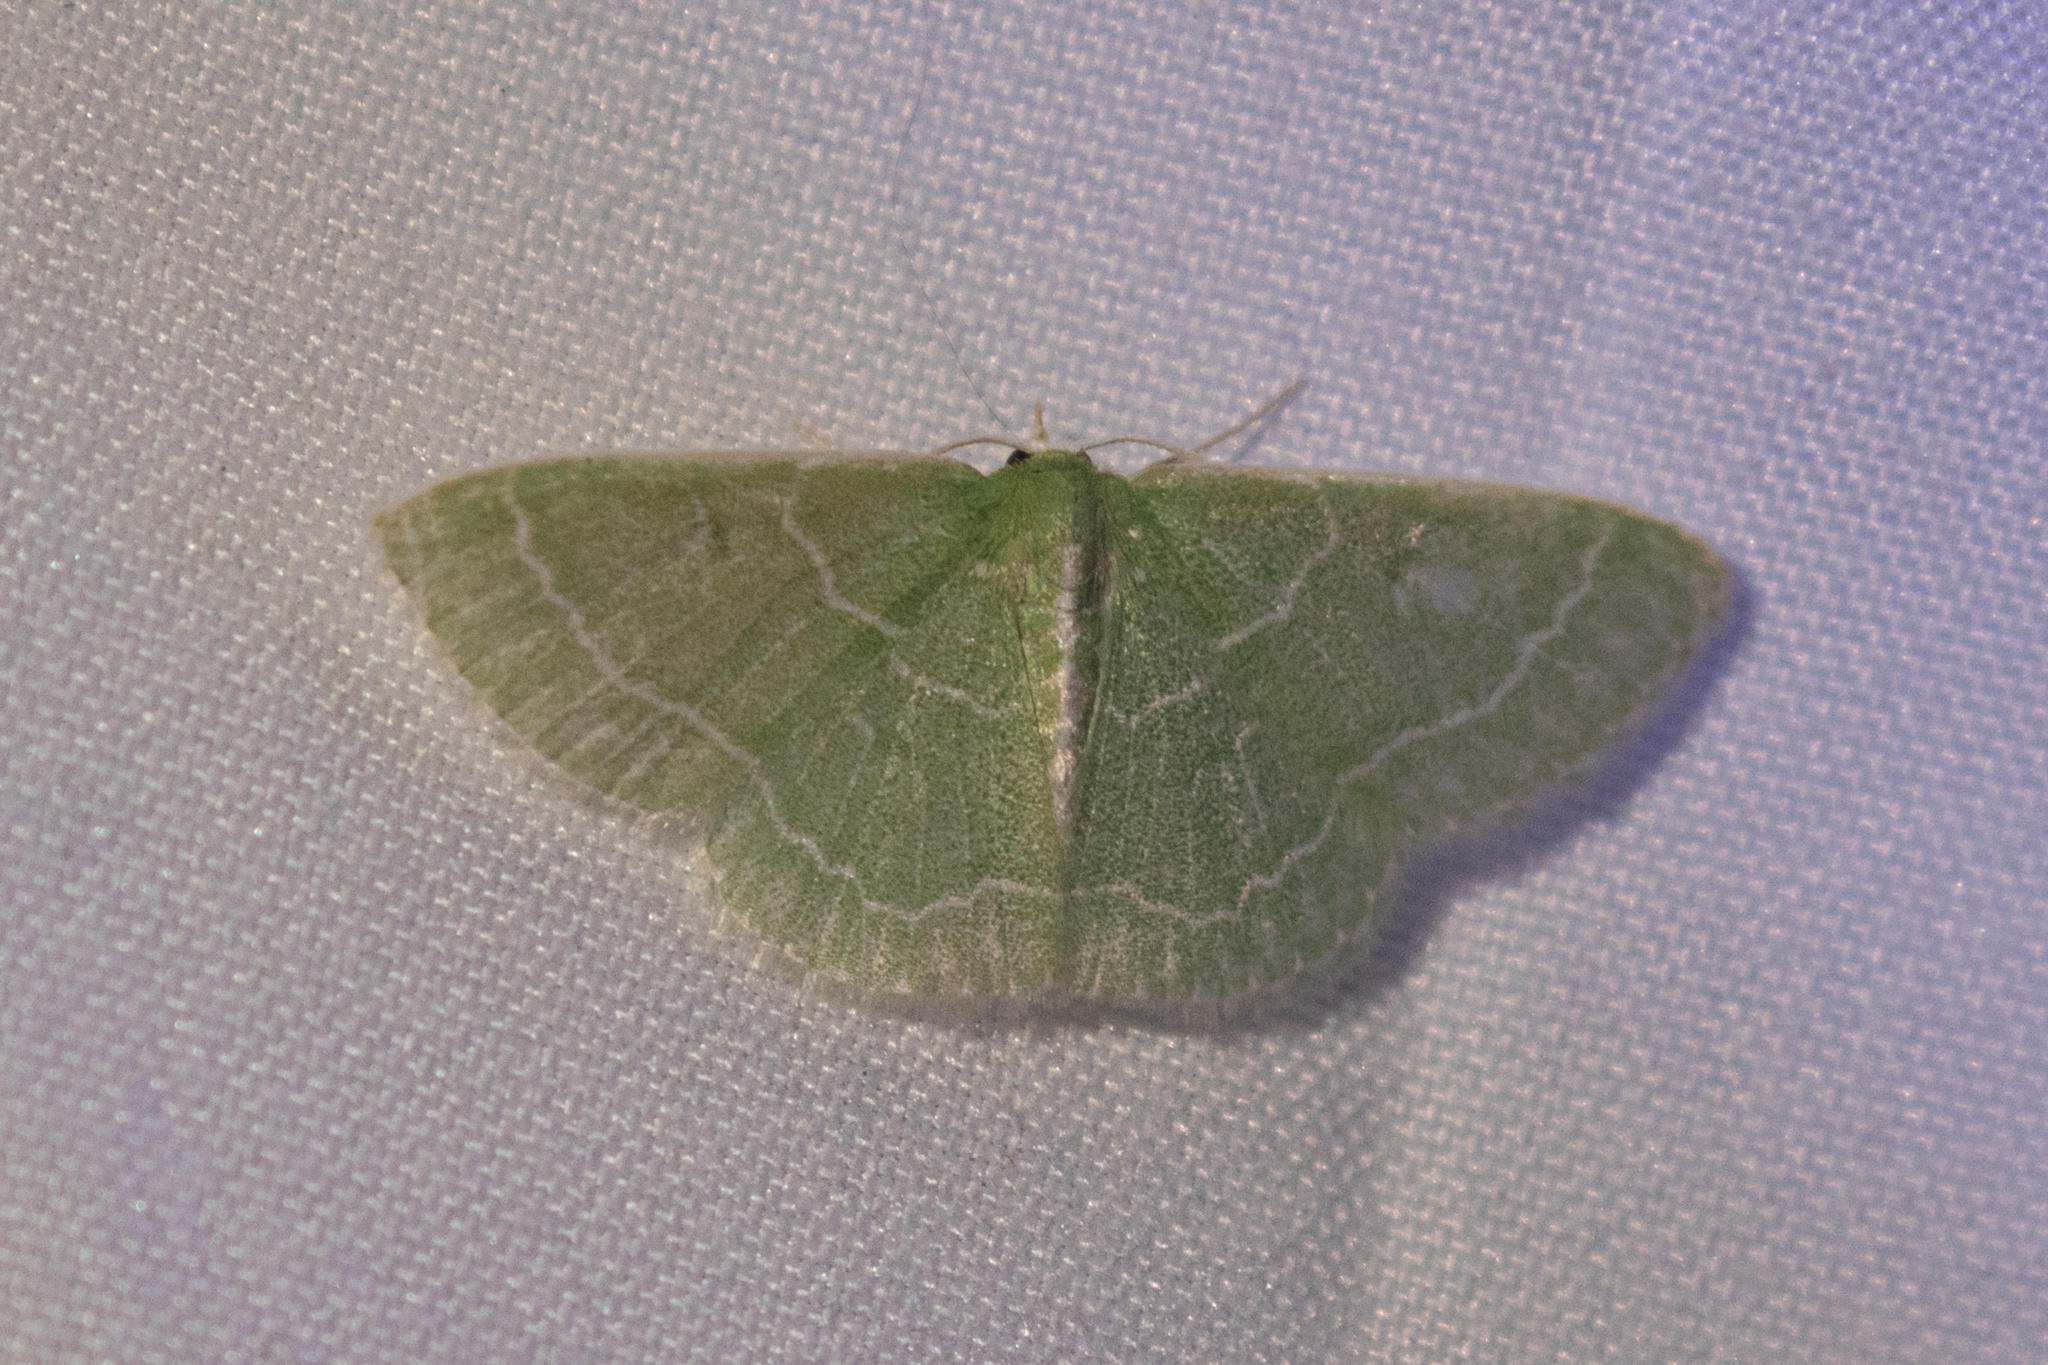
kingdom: Animalia
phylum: Arthropoda
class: Insecta
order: Lepidoptera
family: Geometridae
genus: Synchlora
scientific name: Synchlora aerata
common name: Wavy-lined emerald
